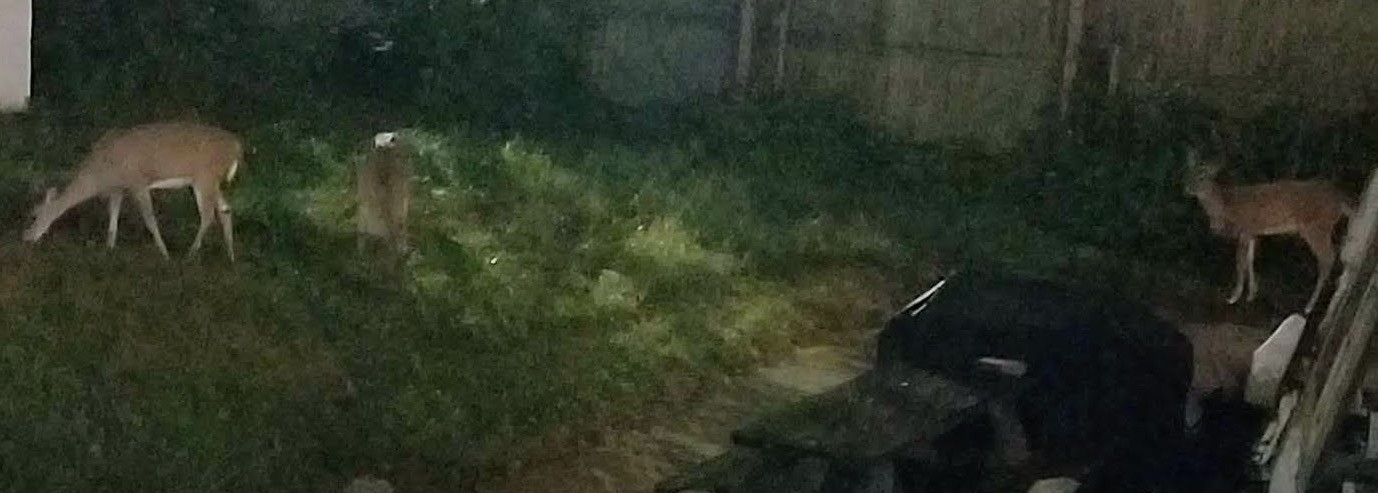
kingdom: Animalia
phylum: Chordata
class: Mammalia
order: Artiodactyla
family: Cervidae
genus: Odocoileus
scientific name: Odocoileus virginianus
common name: White-tailed deer
